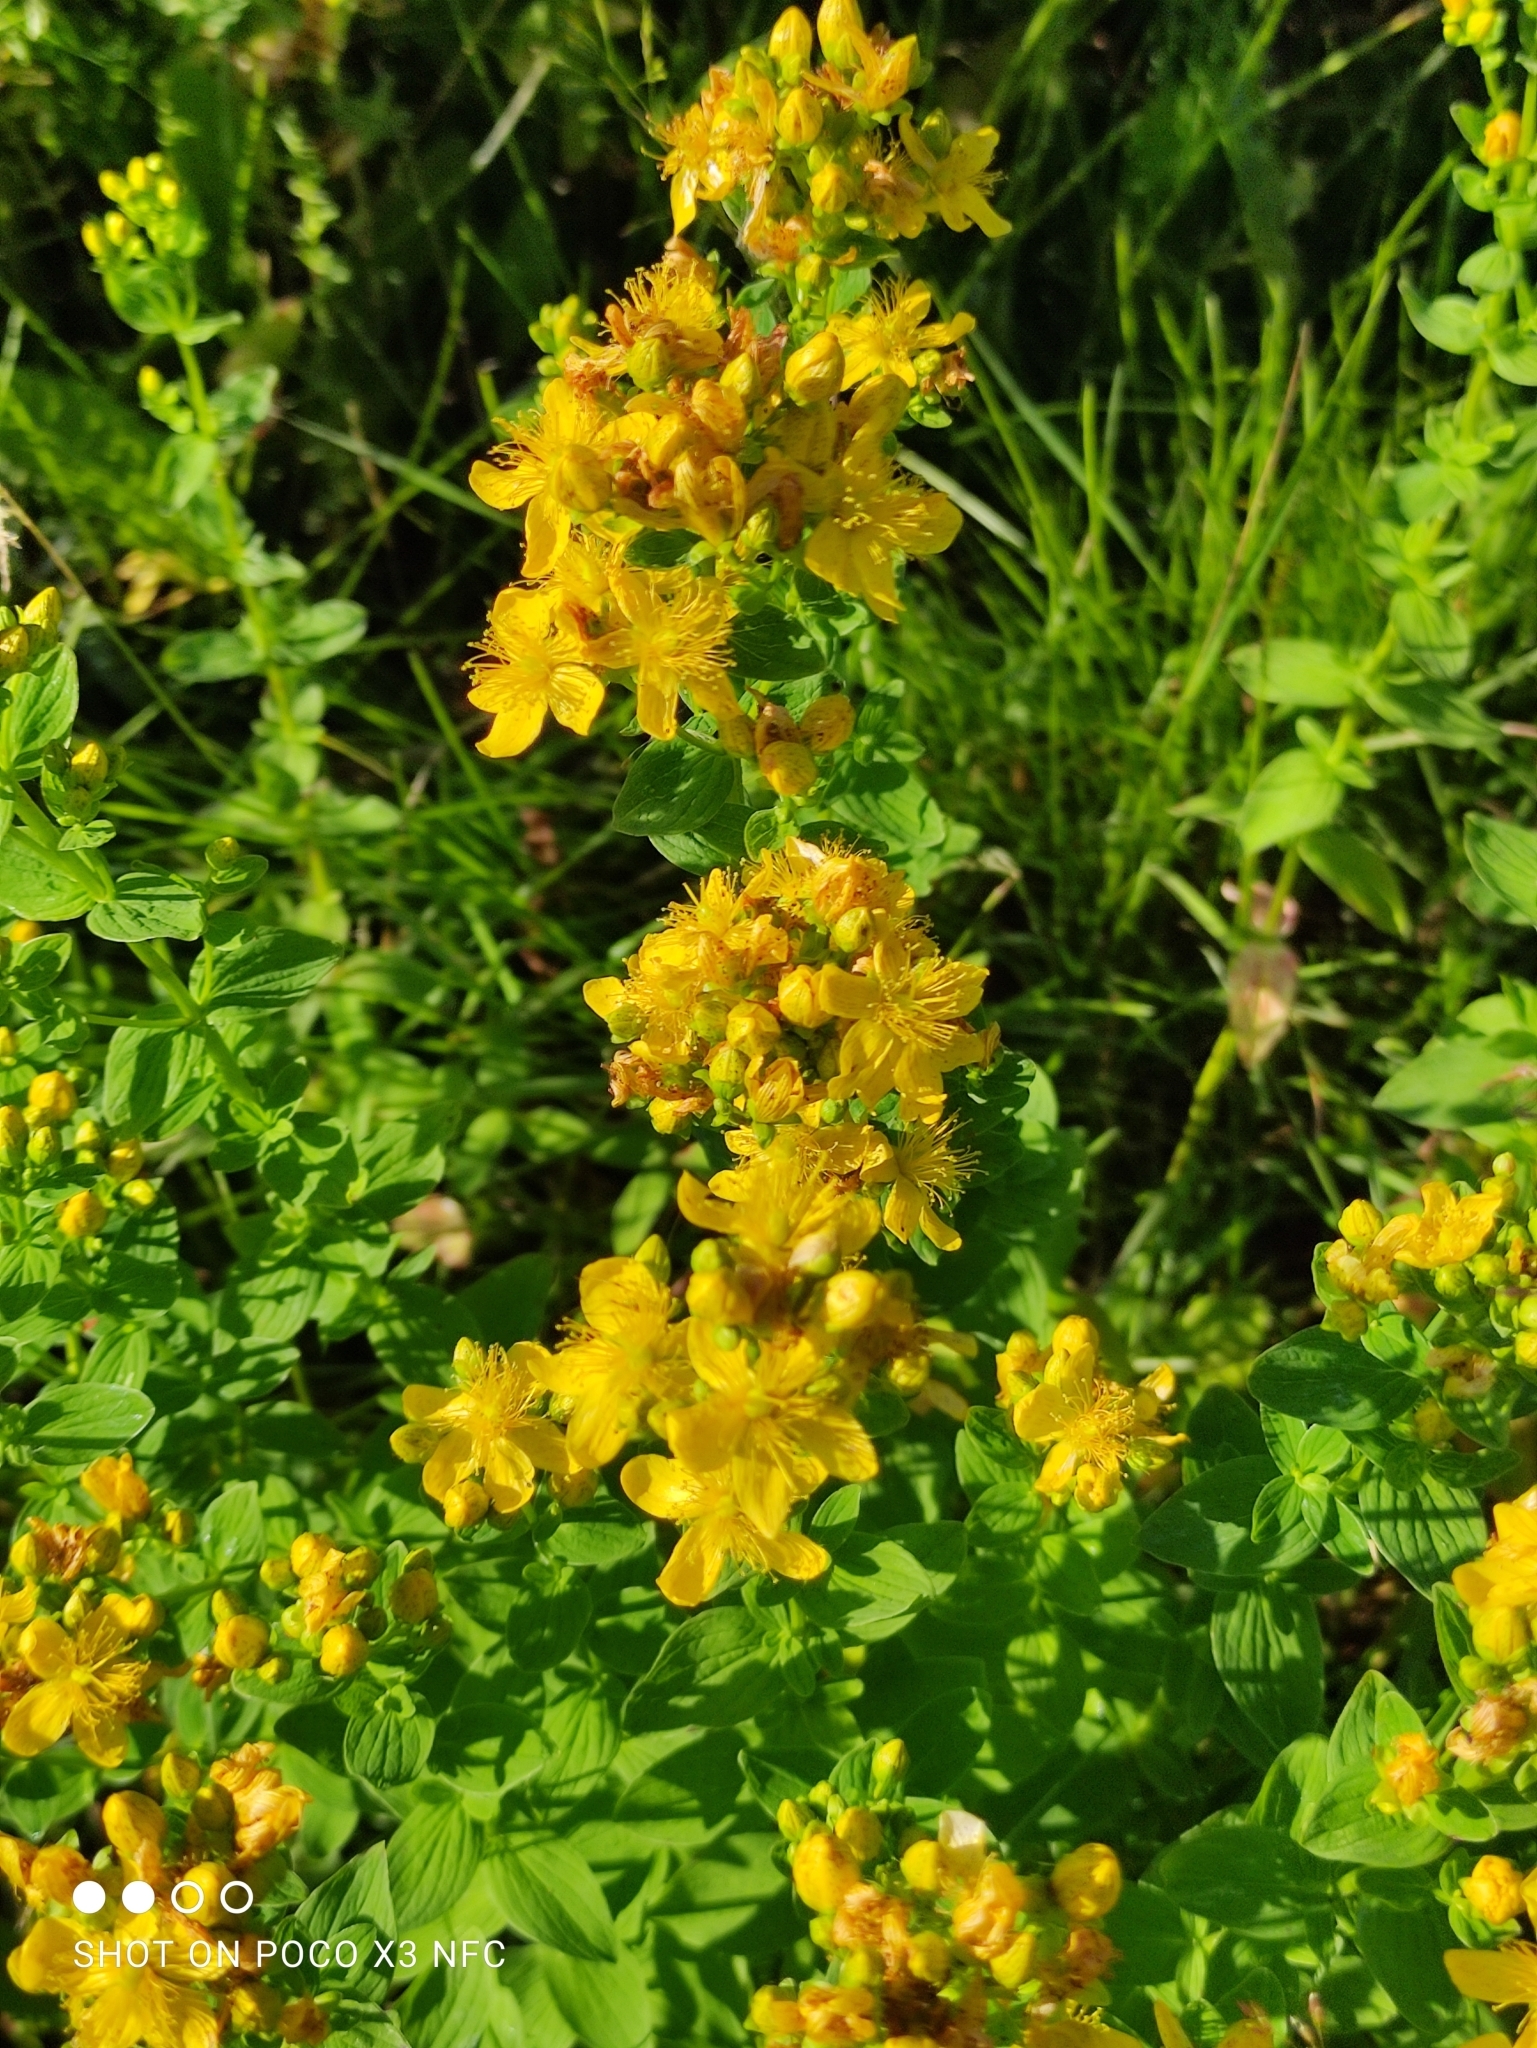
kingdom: Plantae
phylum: Tracheophyta
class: Magnoliopsida
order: Malpighiales
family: Hypericaceae
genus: Hypericum
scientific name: Hypericum maculatum
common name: Imperforate st. john's-wort
